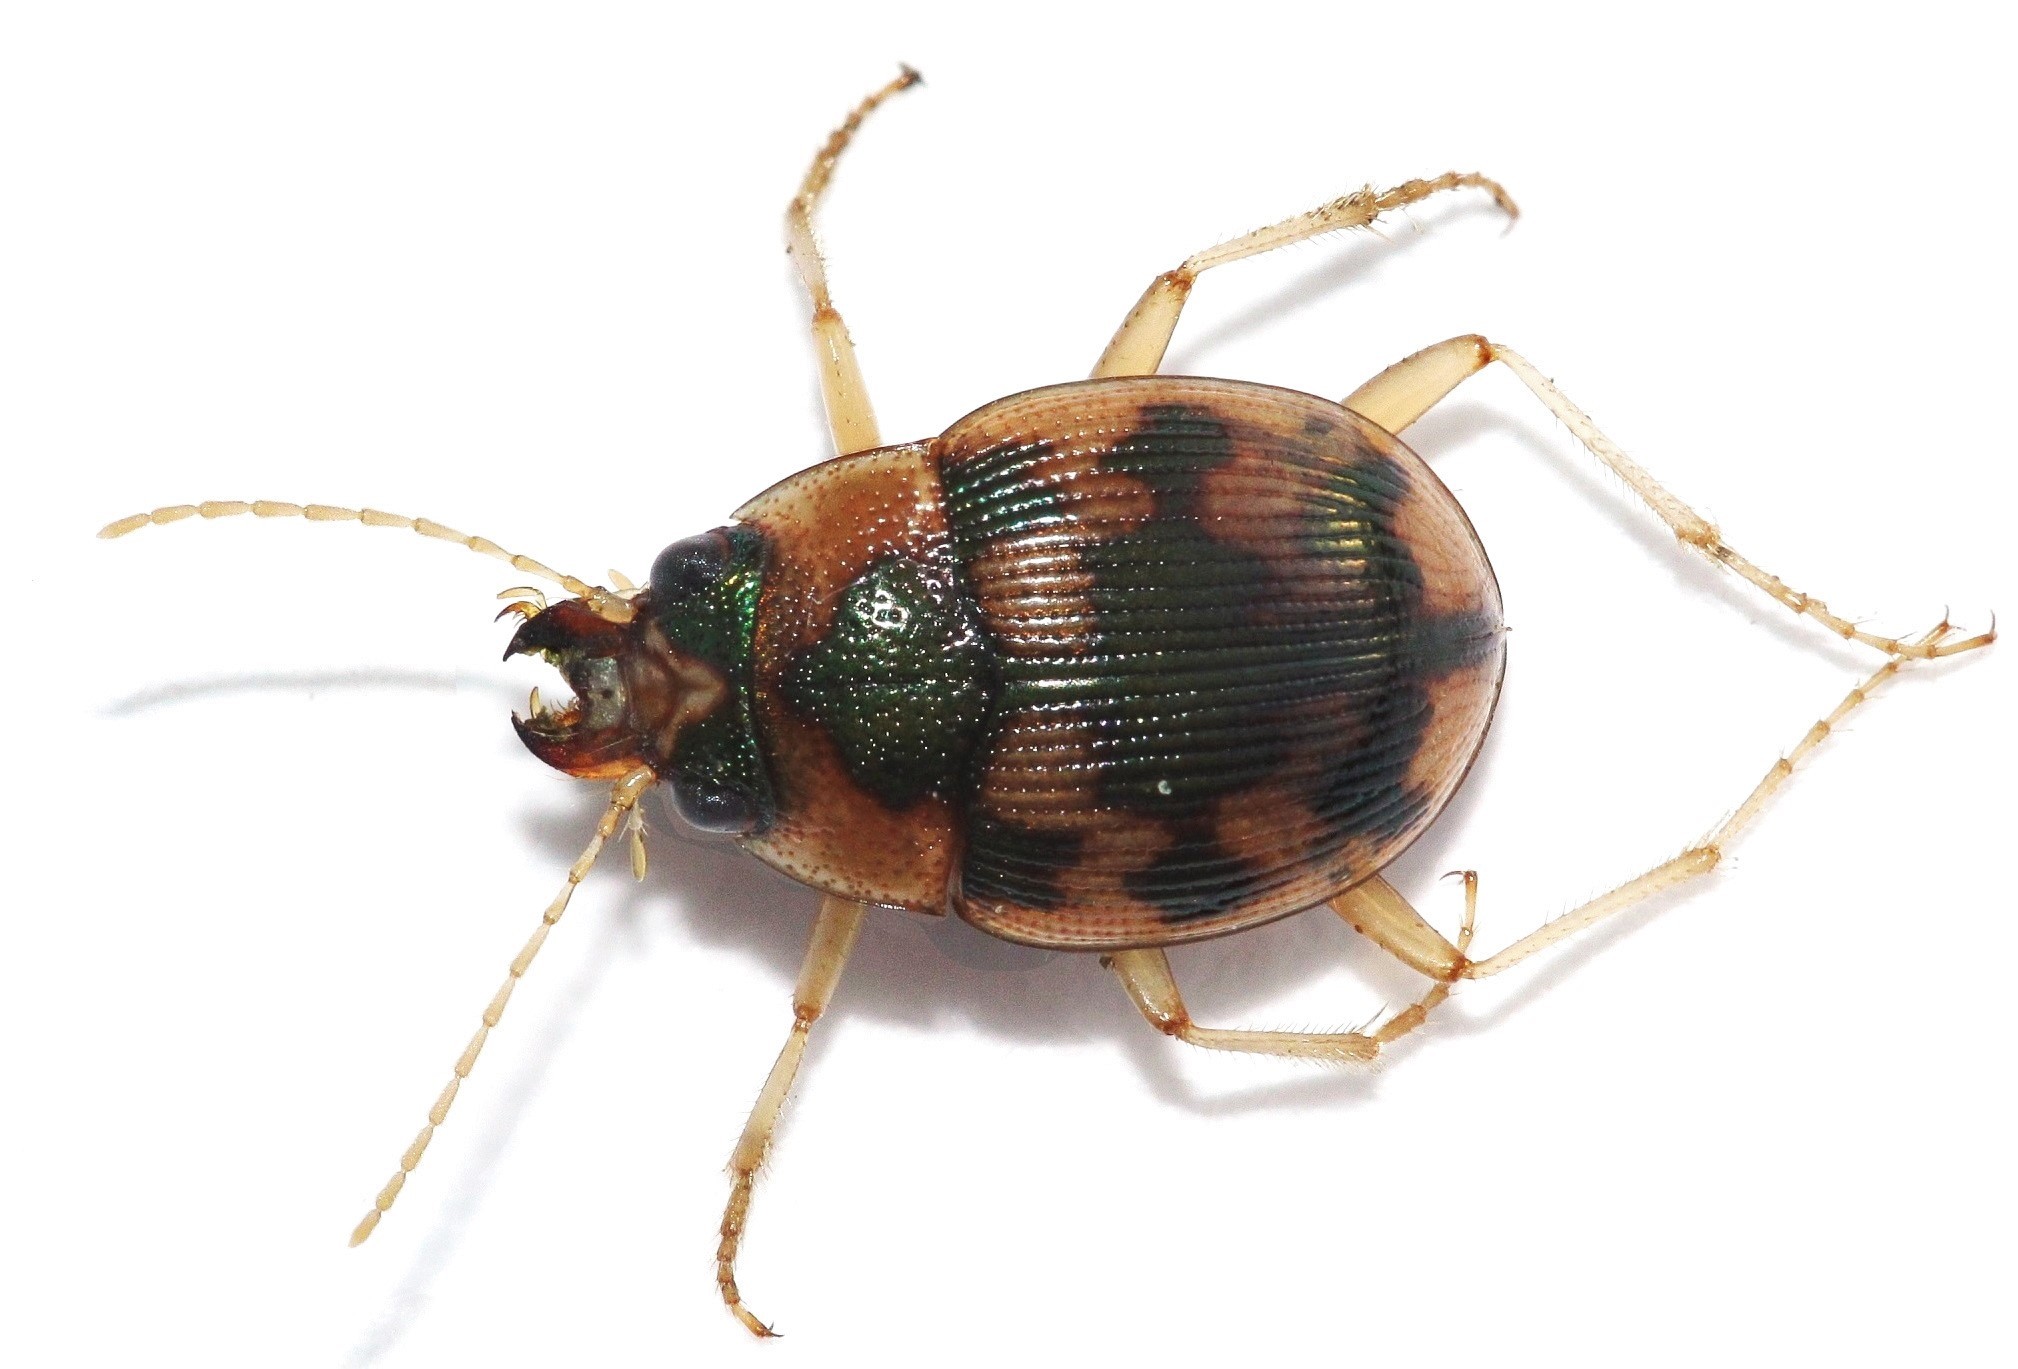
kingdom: Animalia
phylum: Arthropoda
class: Insecta
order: Coleoptera
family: Carabidae
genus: Omophron
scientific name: Omophron limbatum
